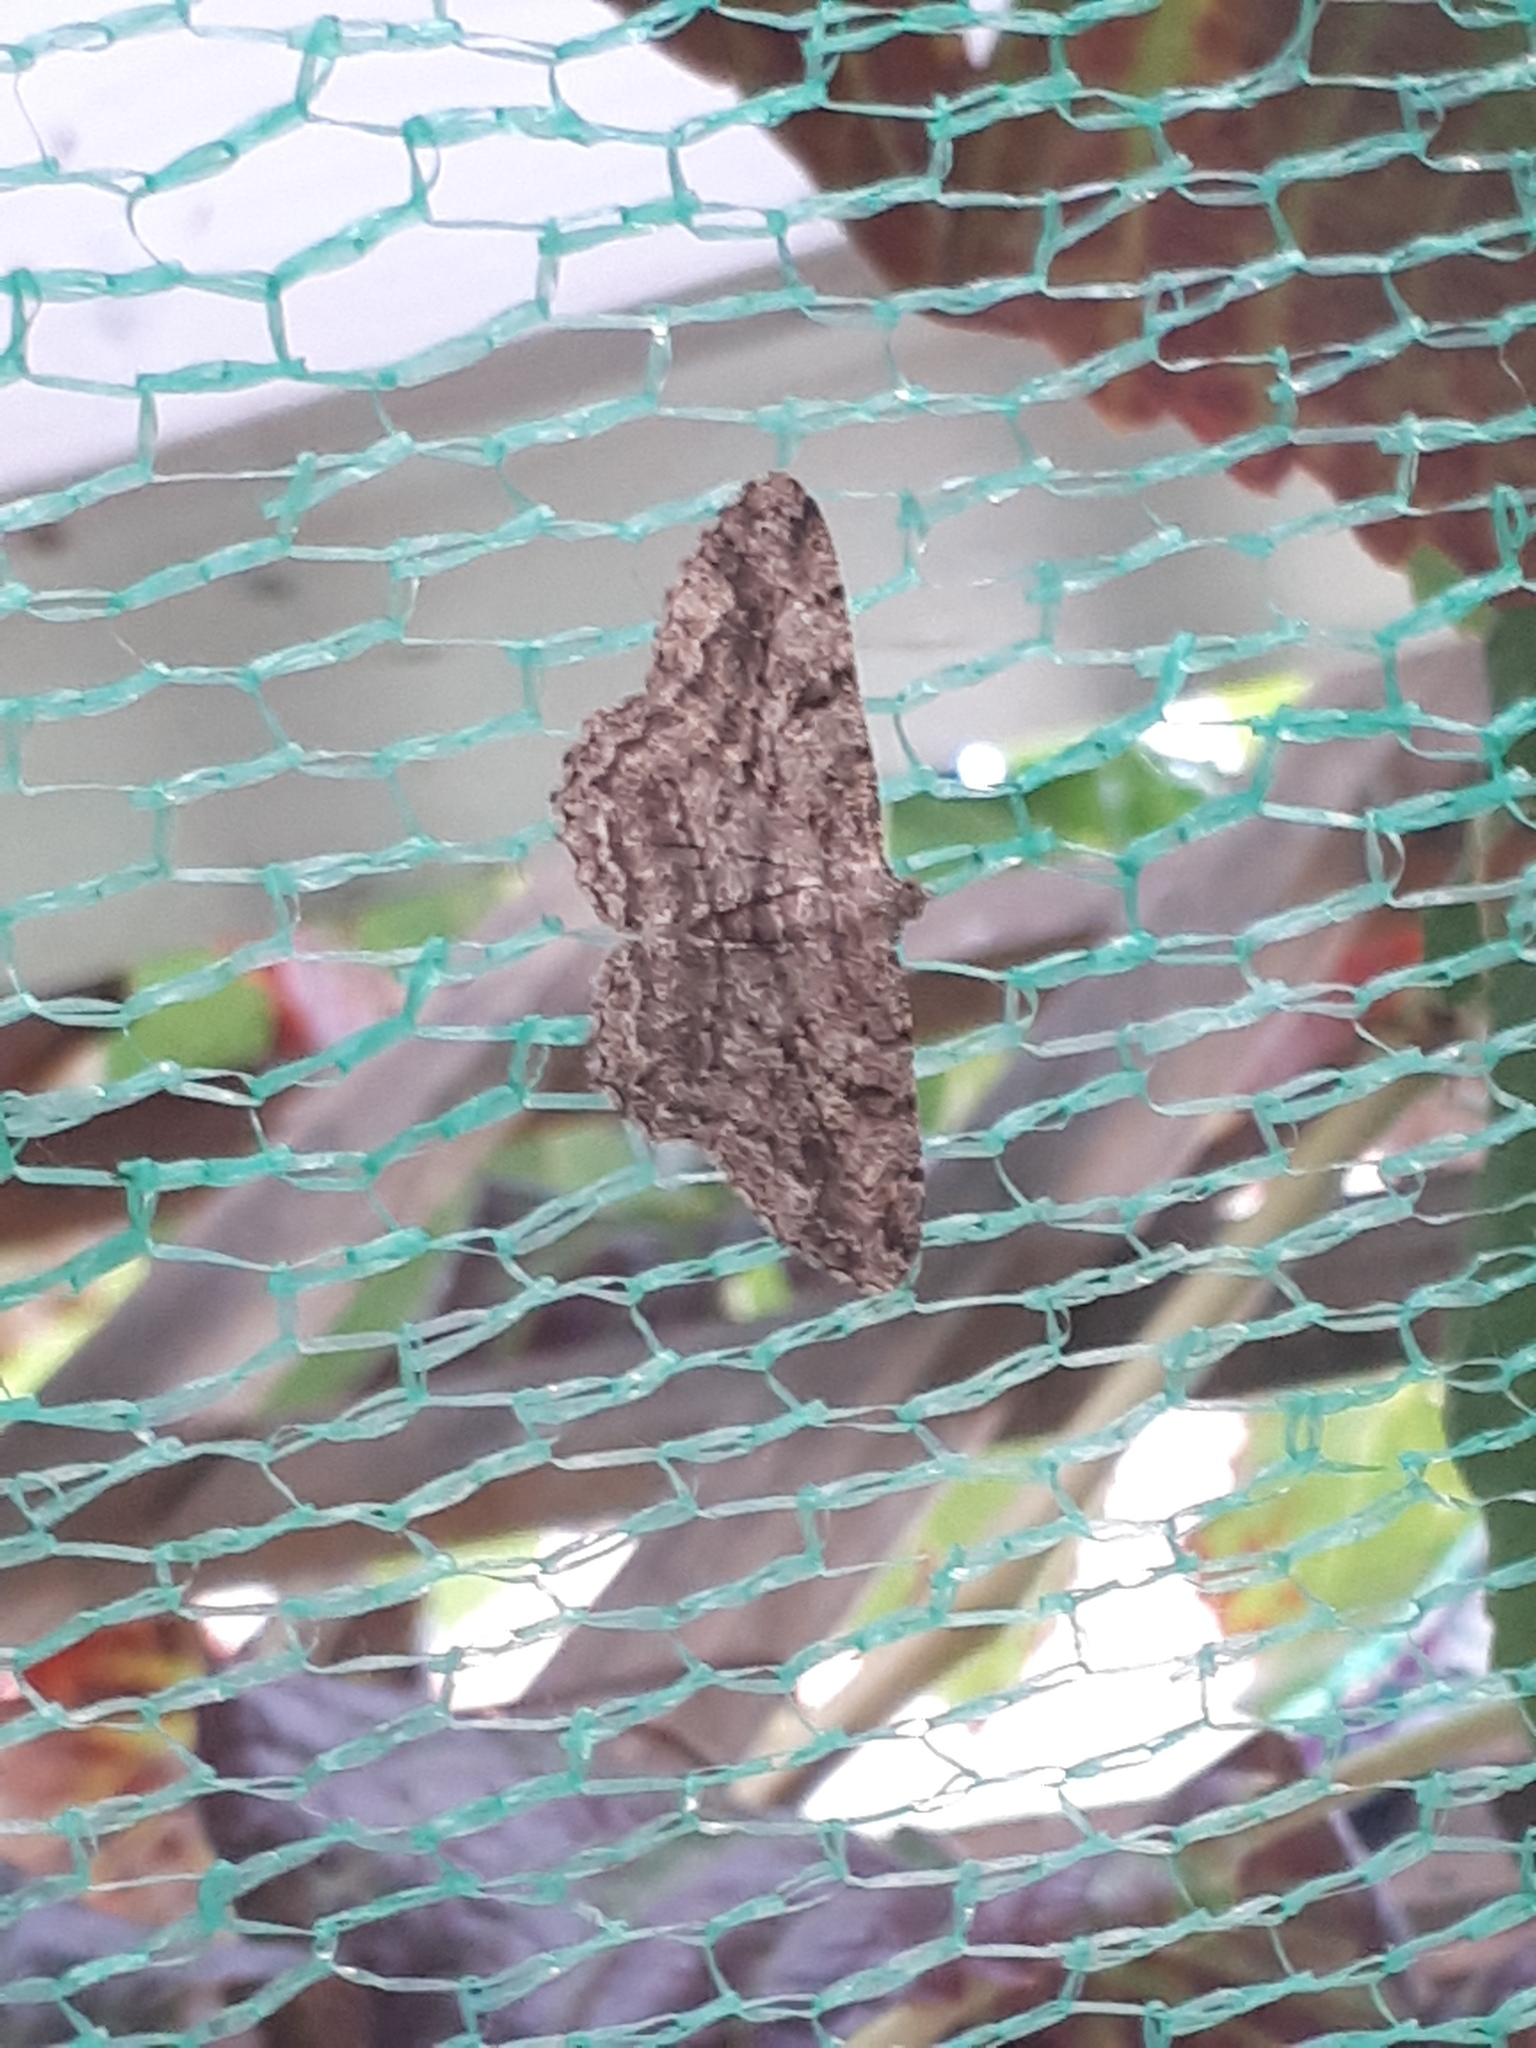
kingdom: Animalia
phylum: Arthropoda
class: Insecta
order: Lepidoptera
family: Geometridae
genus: Peribatodes
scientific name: Peribatodes rhomboidaria
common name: Willow beauty
